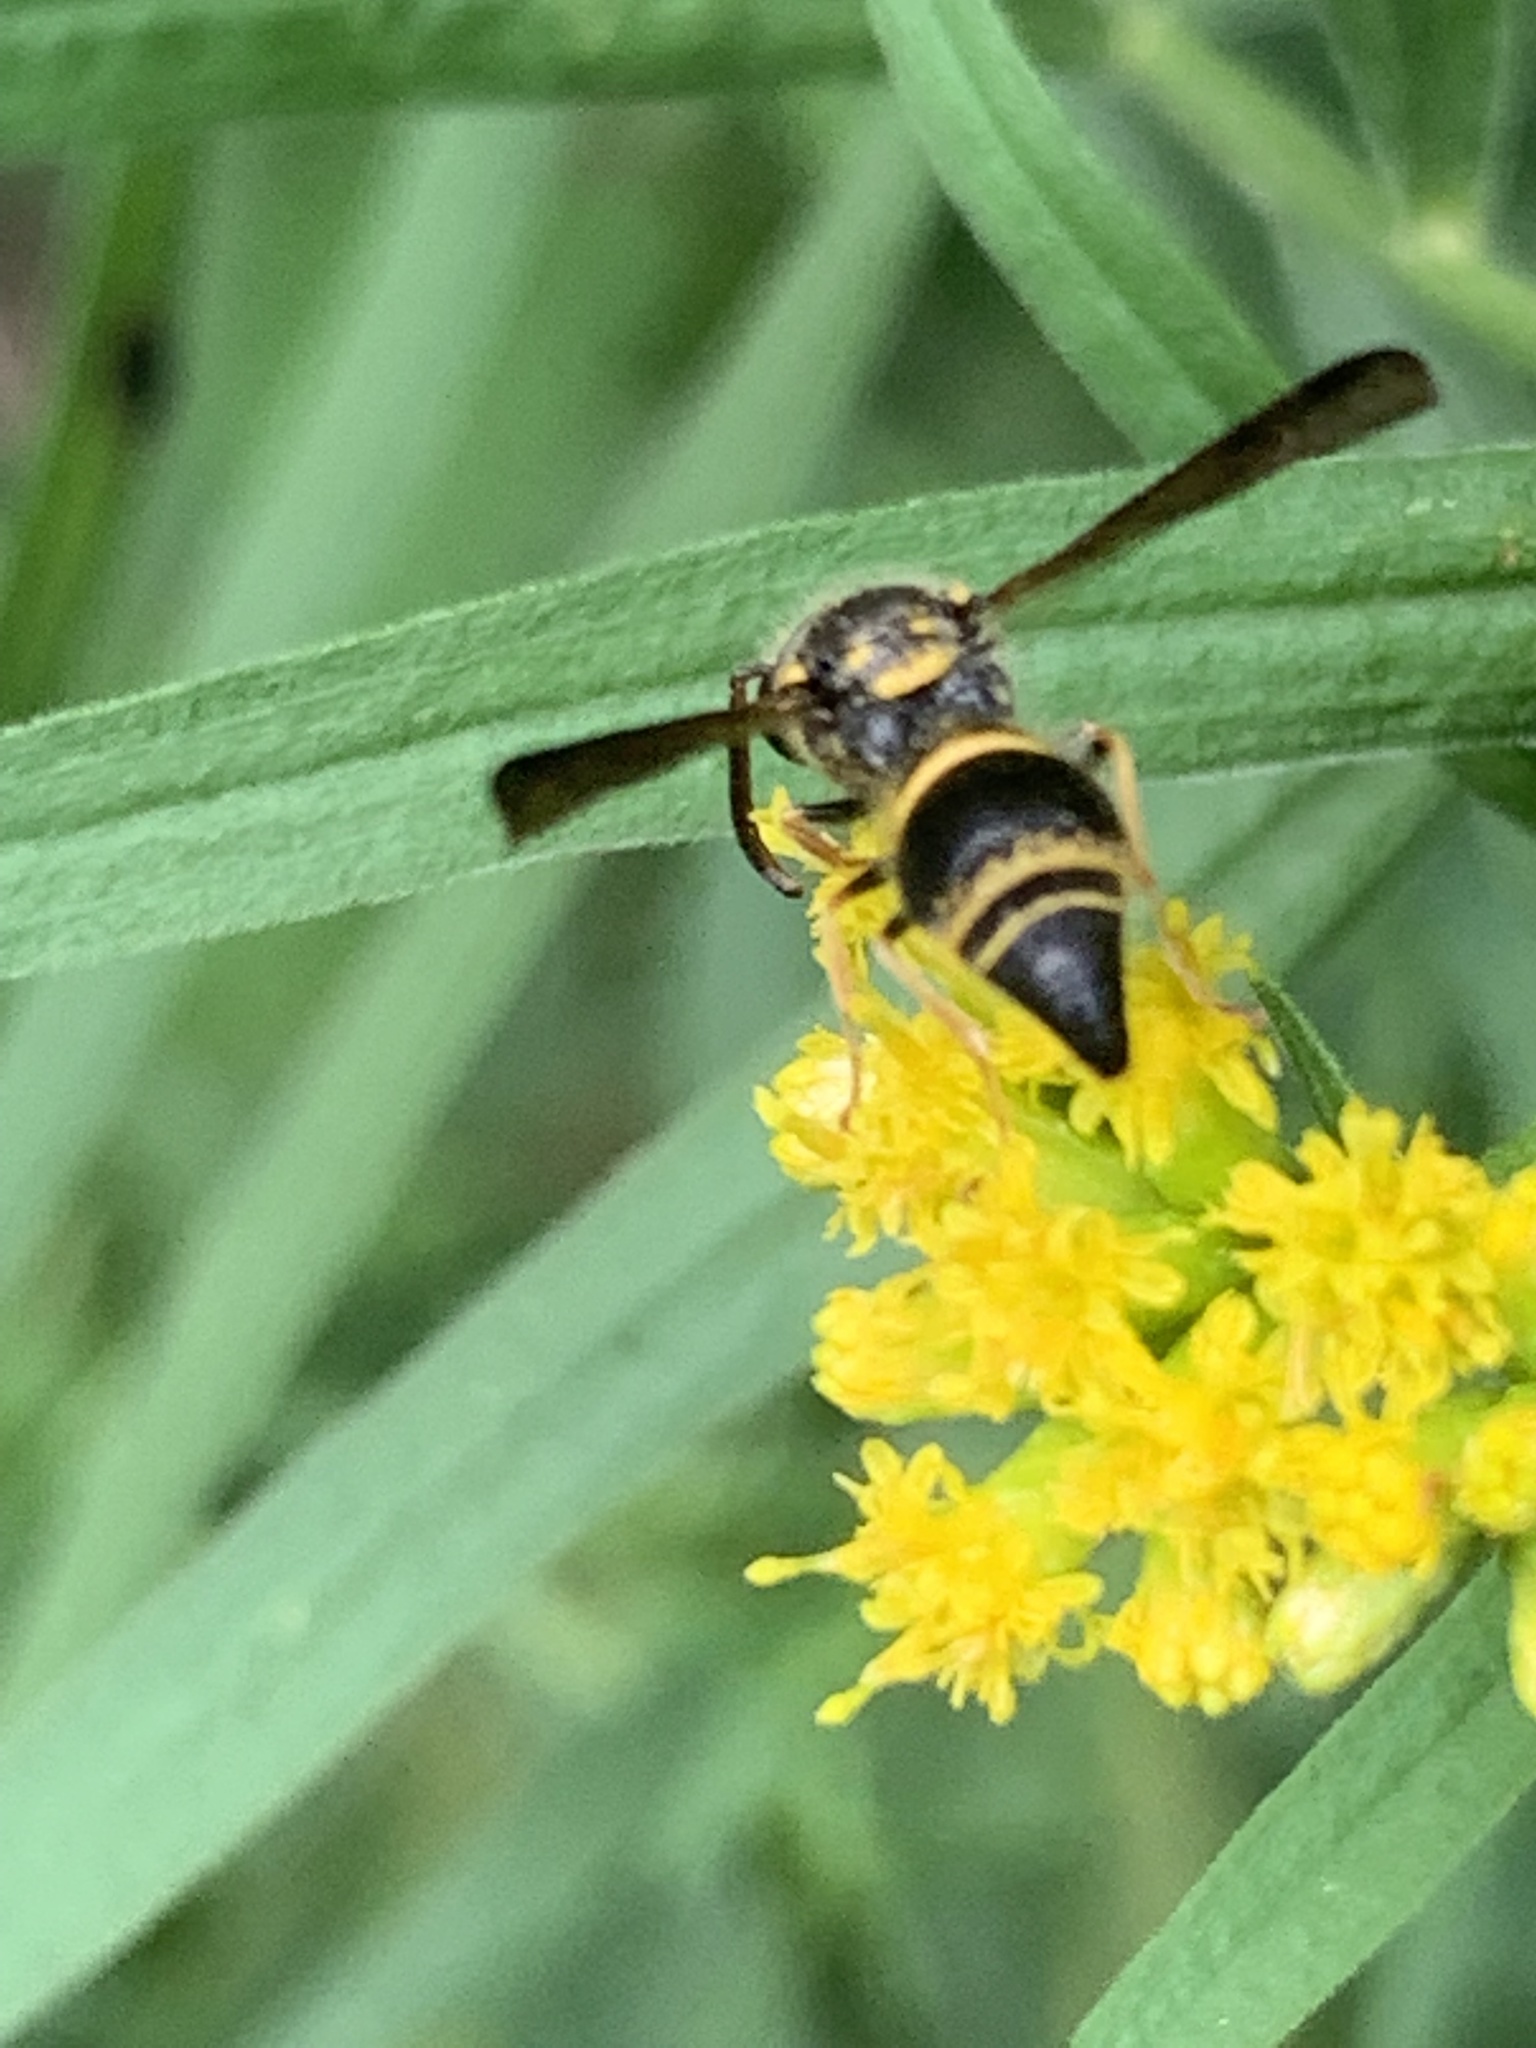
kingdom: Animalia
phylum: Arthropoda
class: Insecta
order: Hymenoptera
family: Eumenidae
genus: Euodynerus
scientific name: Euodynerus foraminatus
